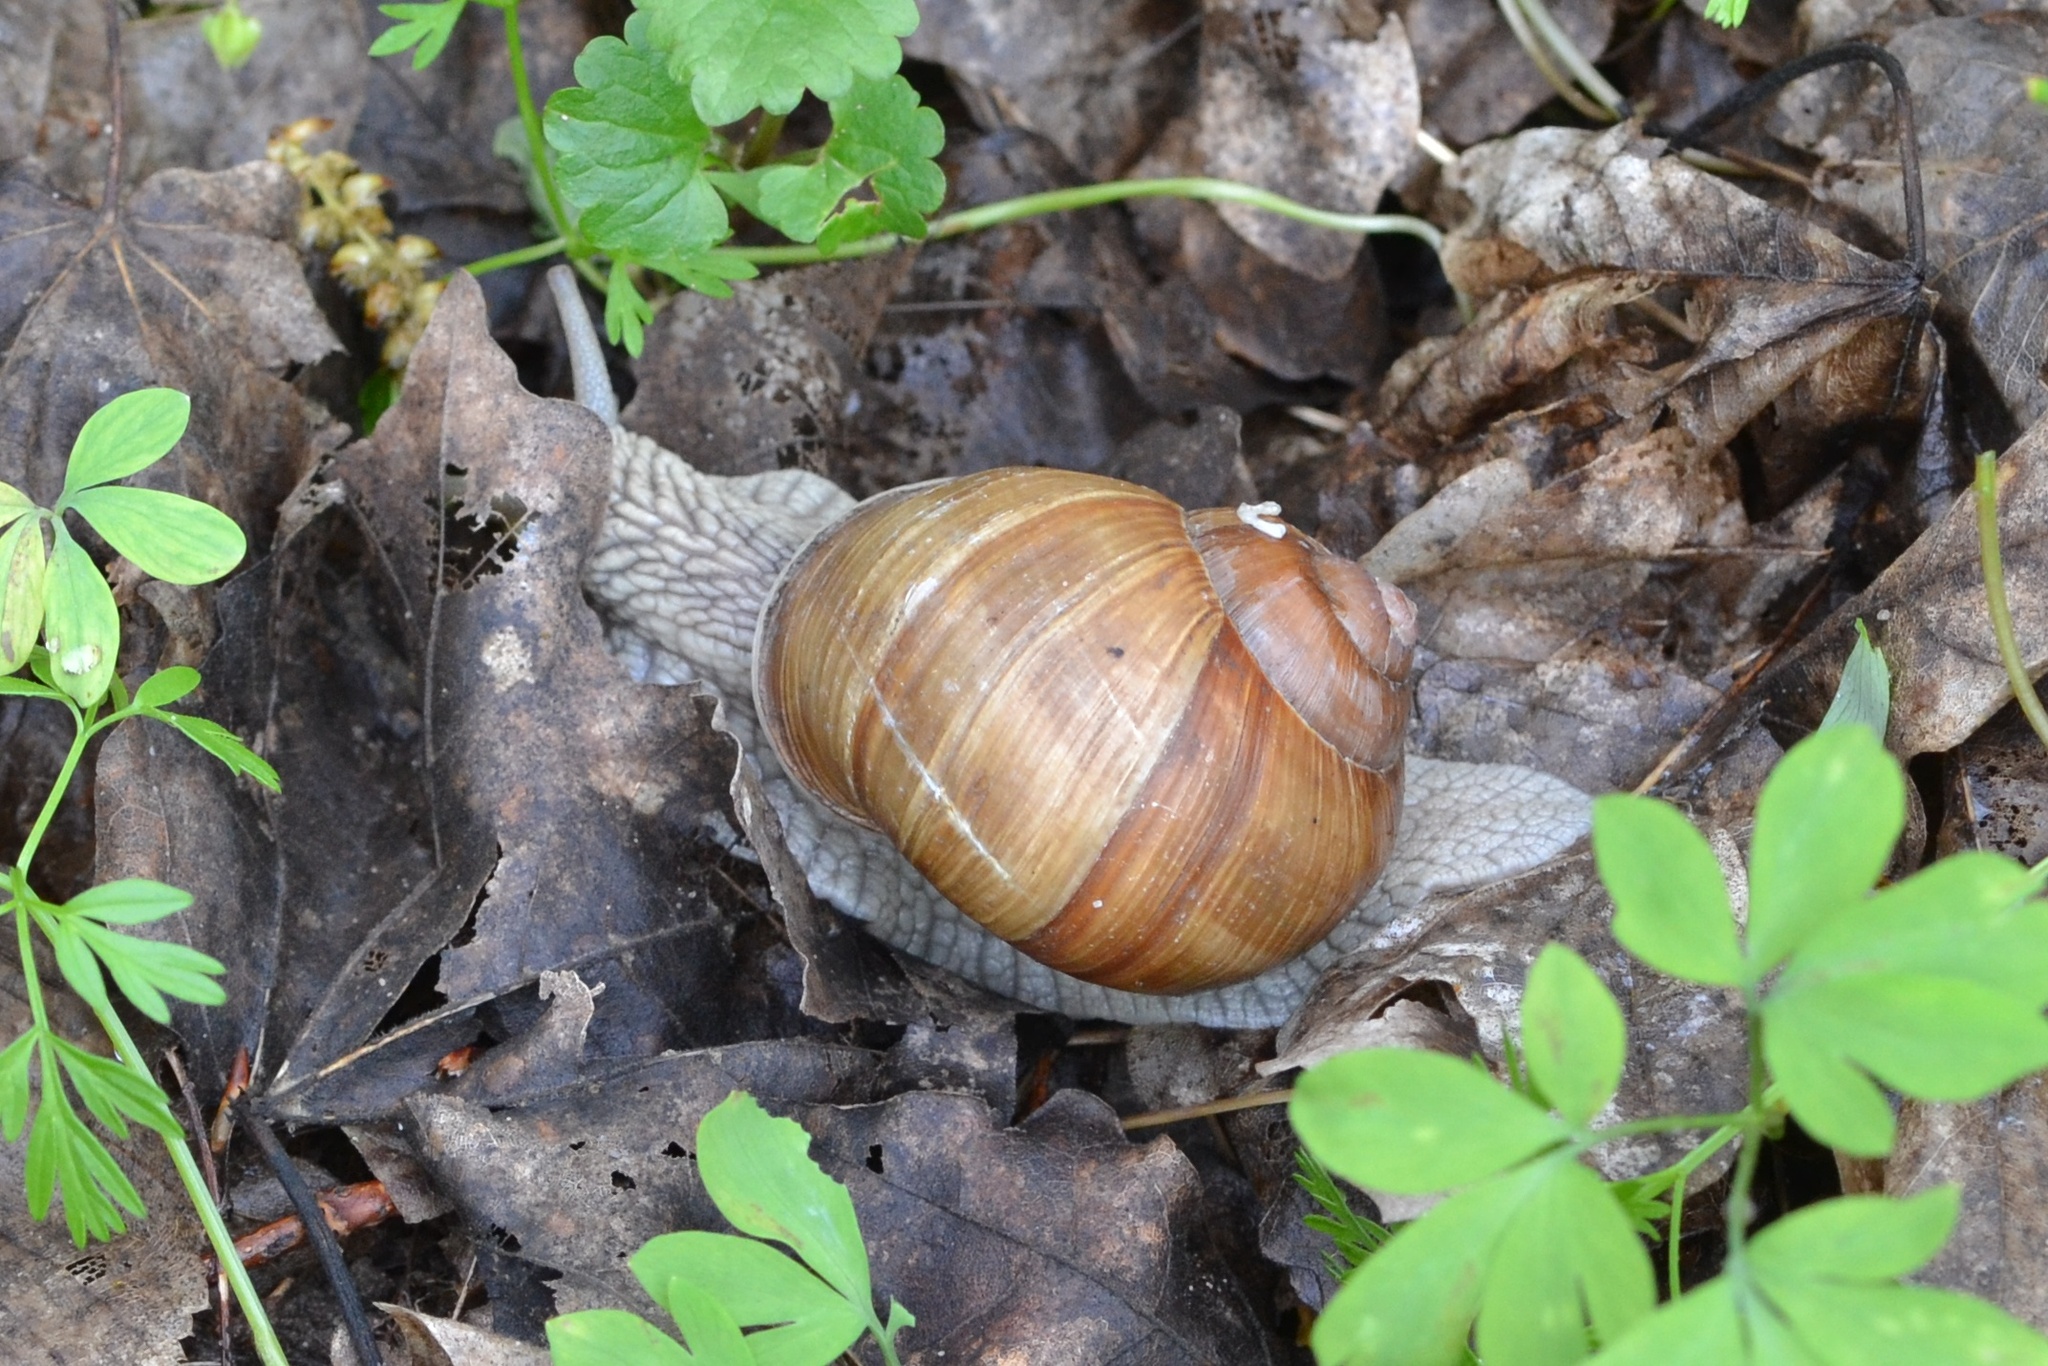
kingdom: Animalia
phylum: Mollusca
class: Gastropoda
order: Stylommatophora
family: Helicidae
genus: Helix
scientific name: Helix pomatia
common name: Roman snail
